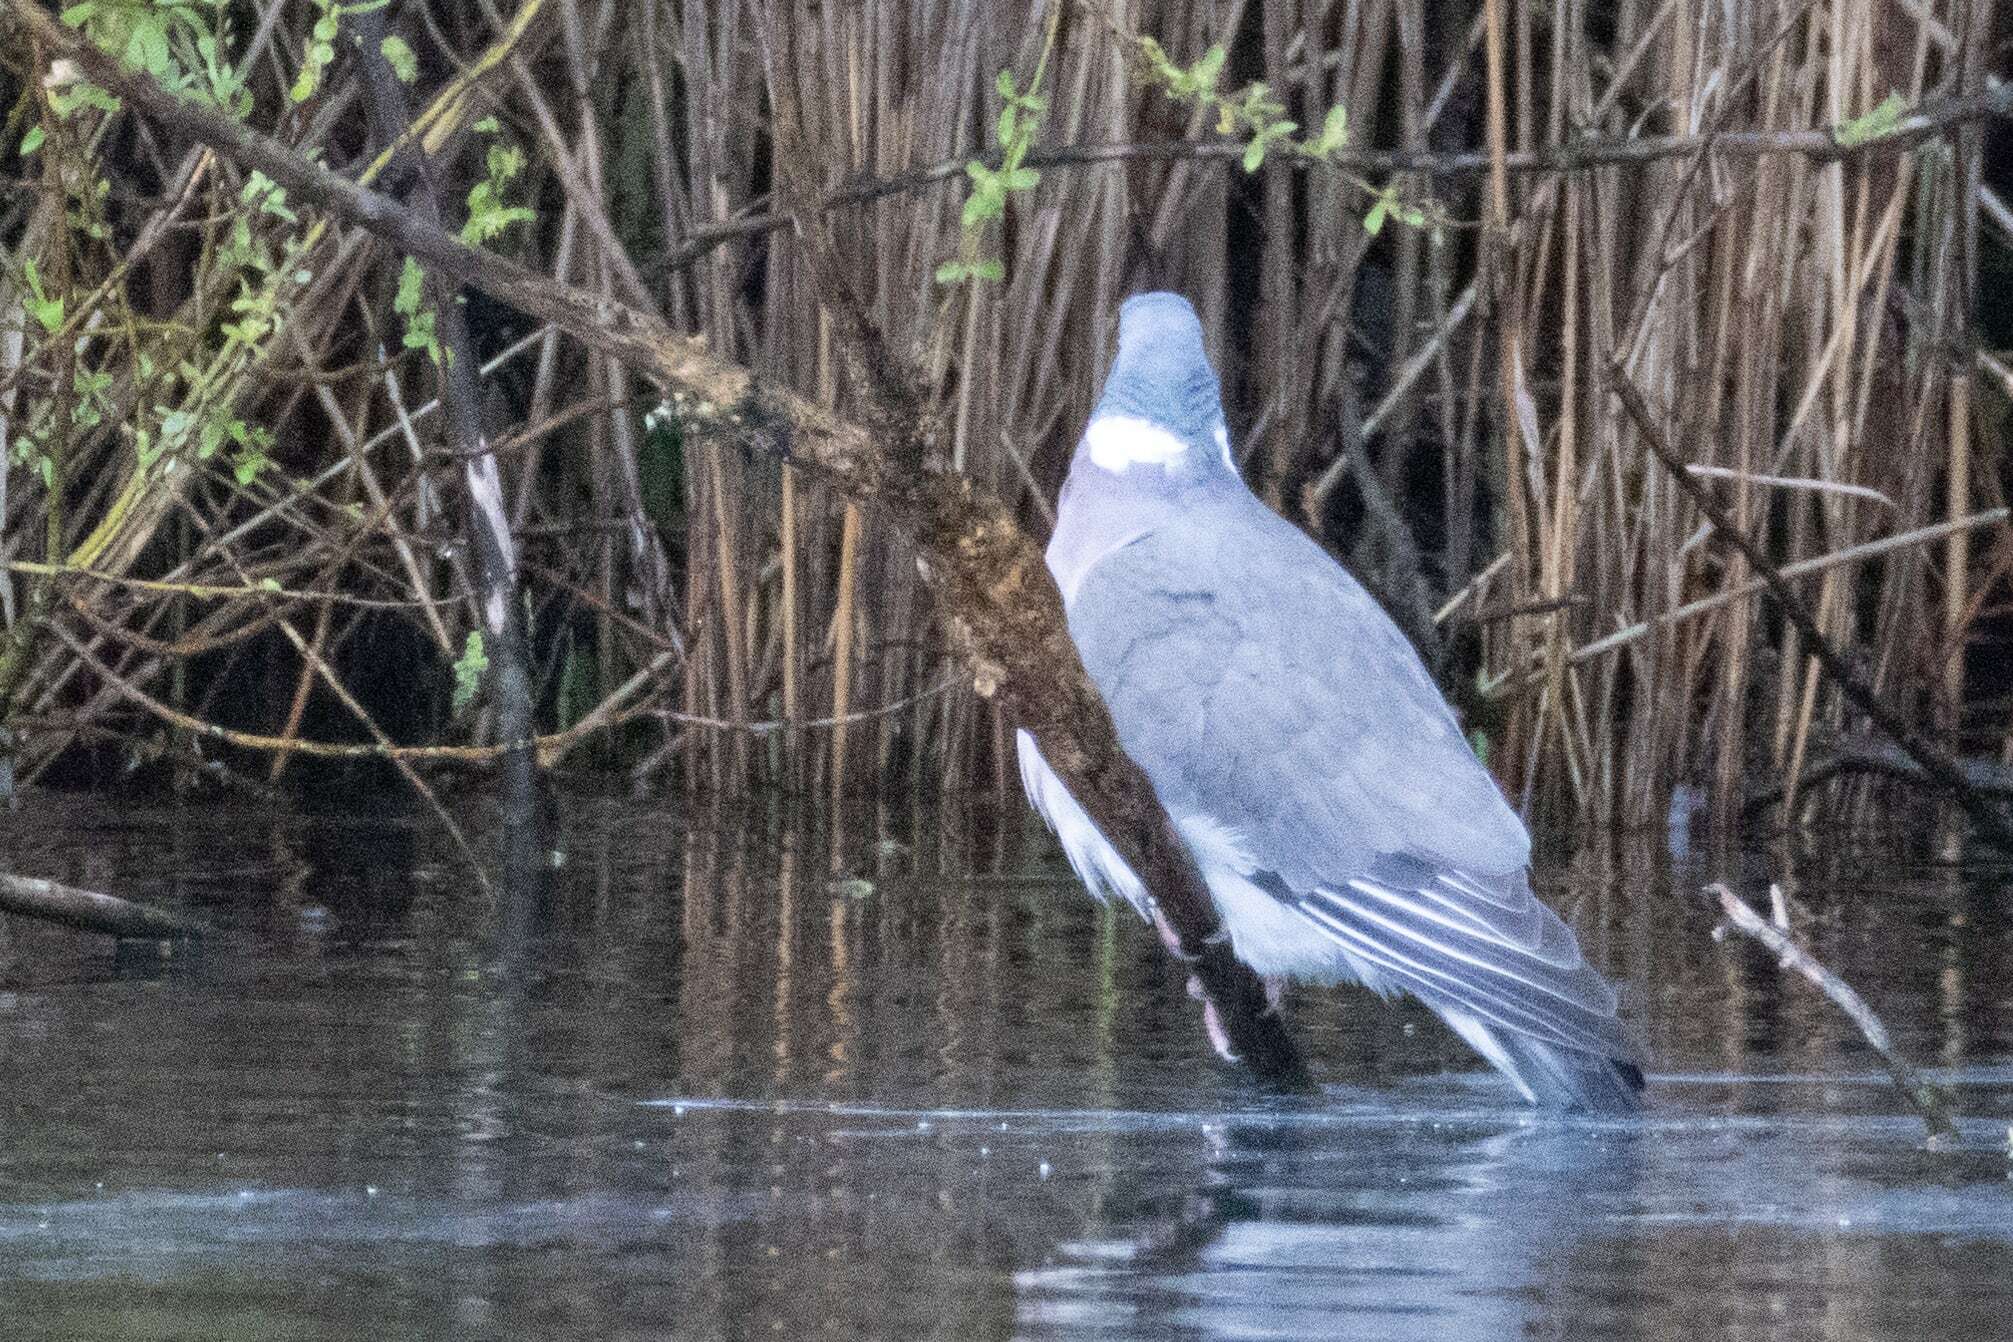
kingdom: Animalia
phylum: Chordata
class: Aves
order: Columbiformes
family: Columbidae
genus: Columba
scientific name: Columba palumbus
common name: Common wood pigeon
